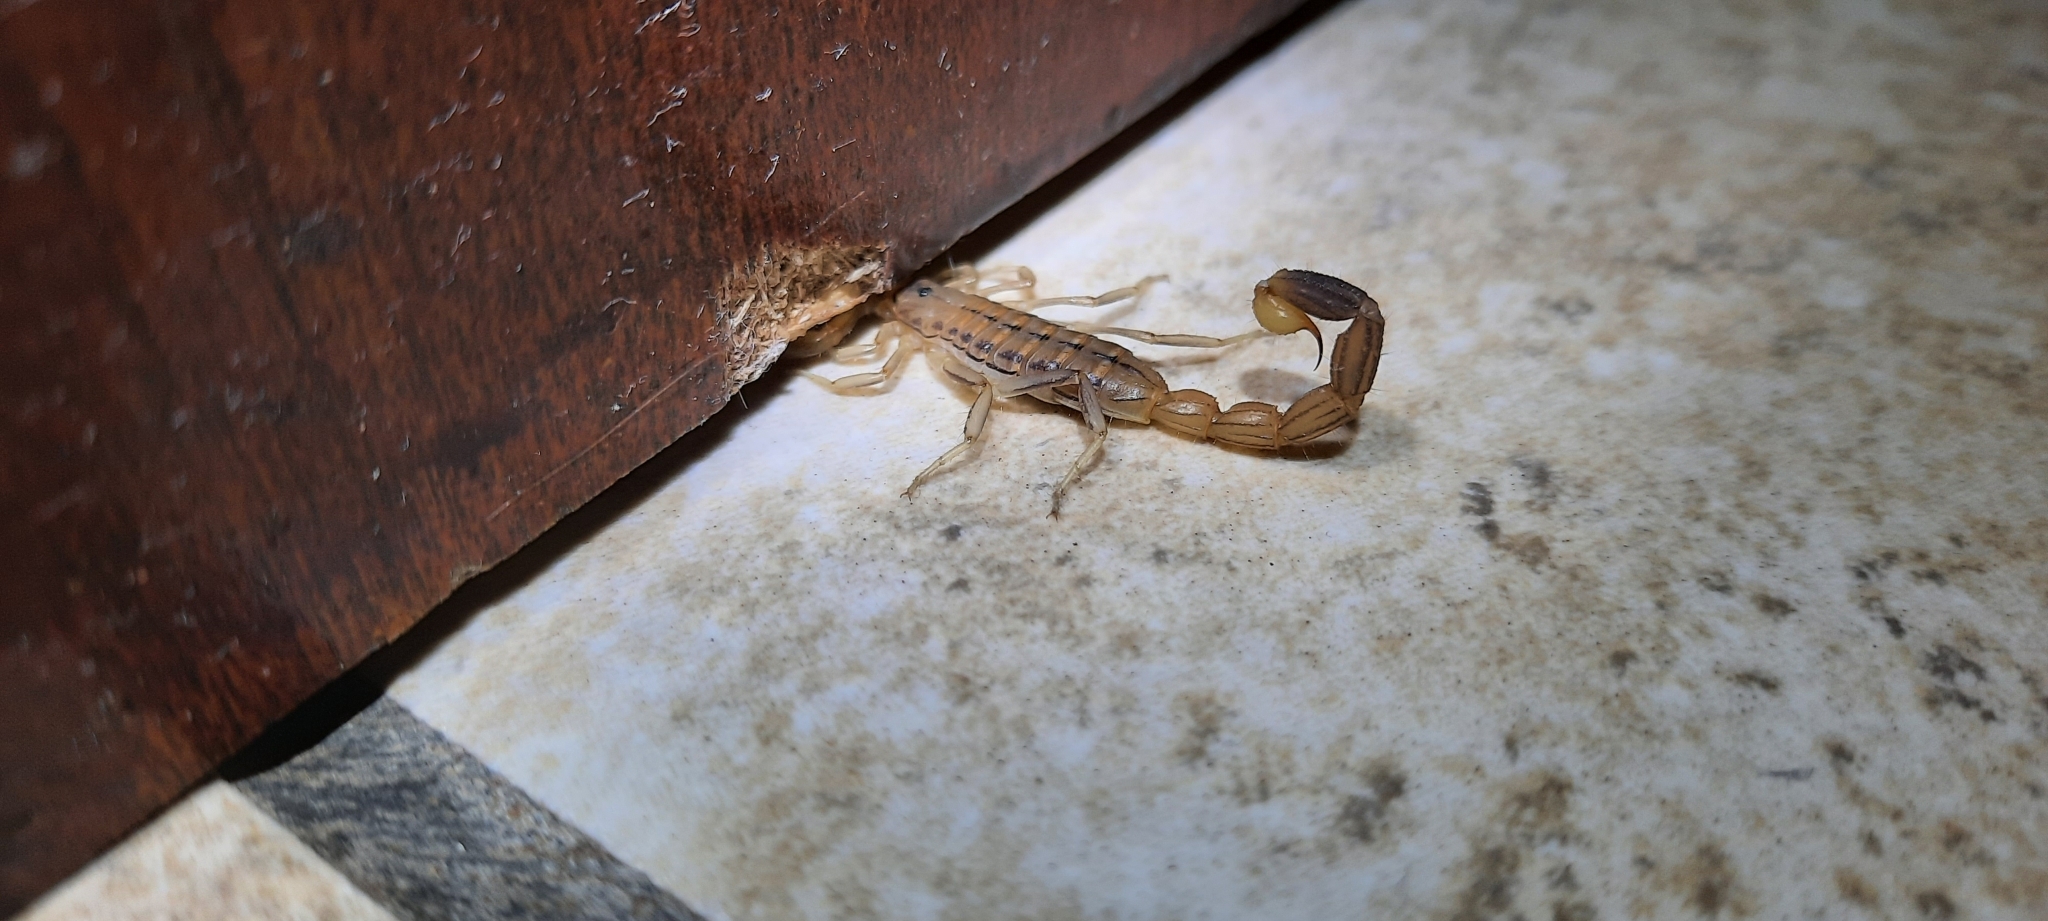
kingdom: Animalia
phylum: Arthropoda
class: Arachnida
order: Scorpiones
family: Buthidae
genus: Uroplectes
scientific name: Uroplectes carinatus
